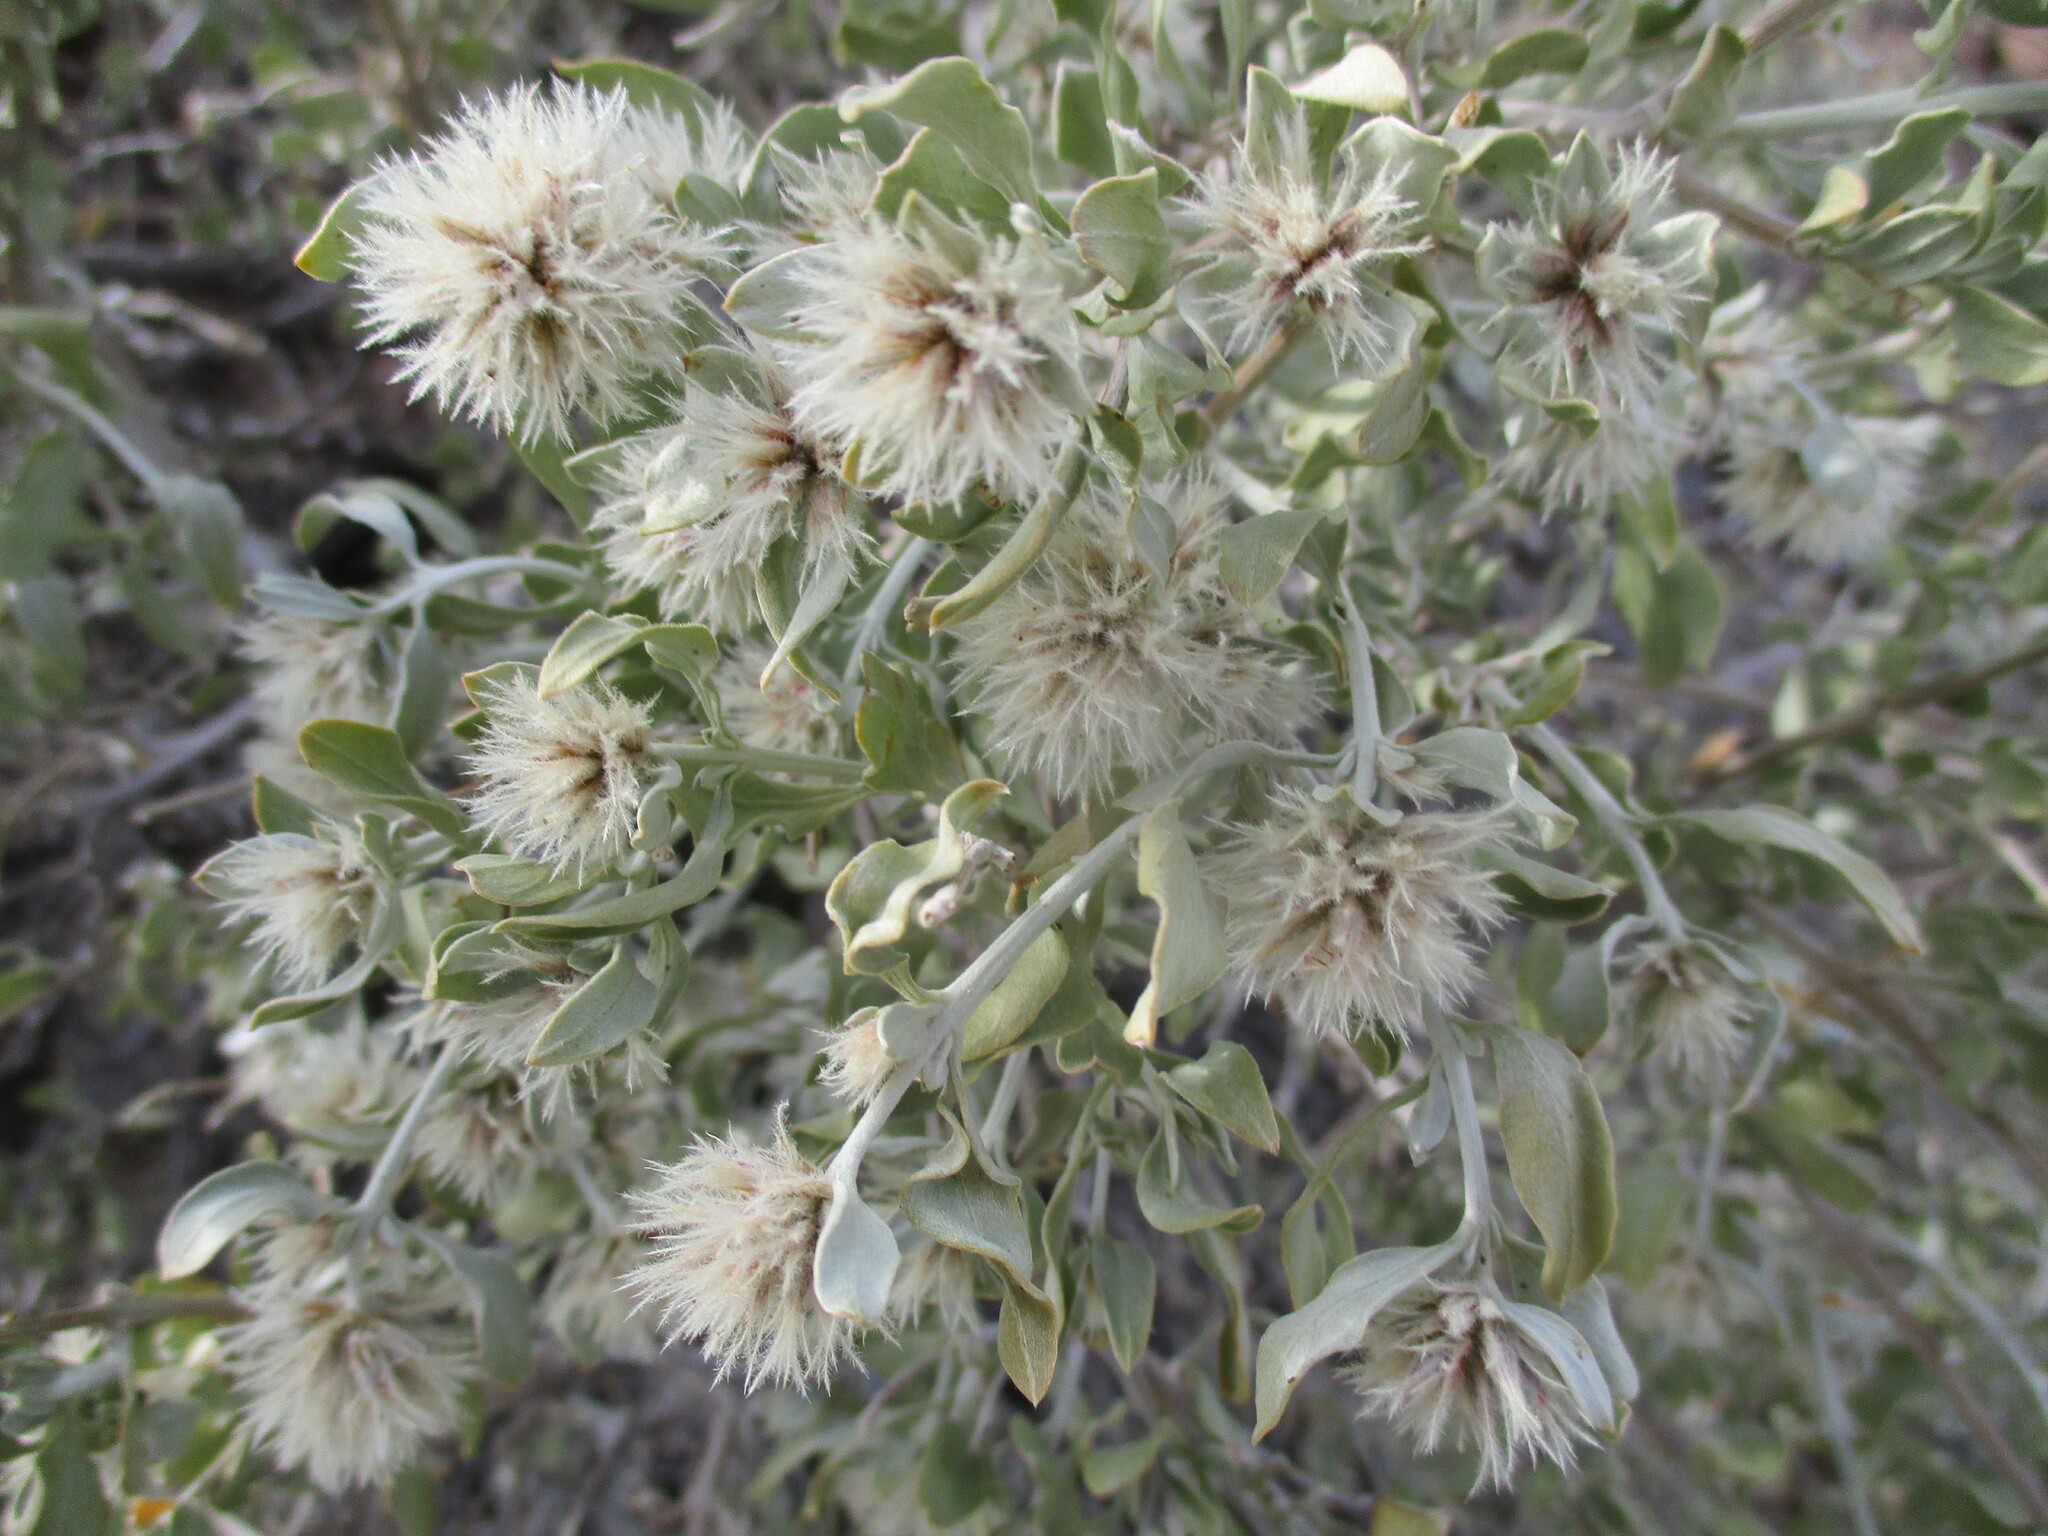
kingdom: Plantae
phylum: Tracheophyta
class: Magnoliopsida
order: Caryophyllales
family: Amaranthaceae
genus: Leucosphaera
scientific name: Leucosphaera bainesii
